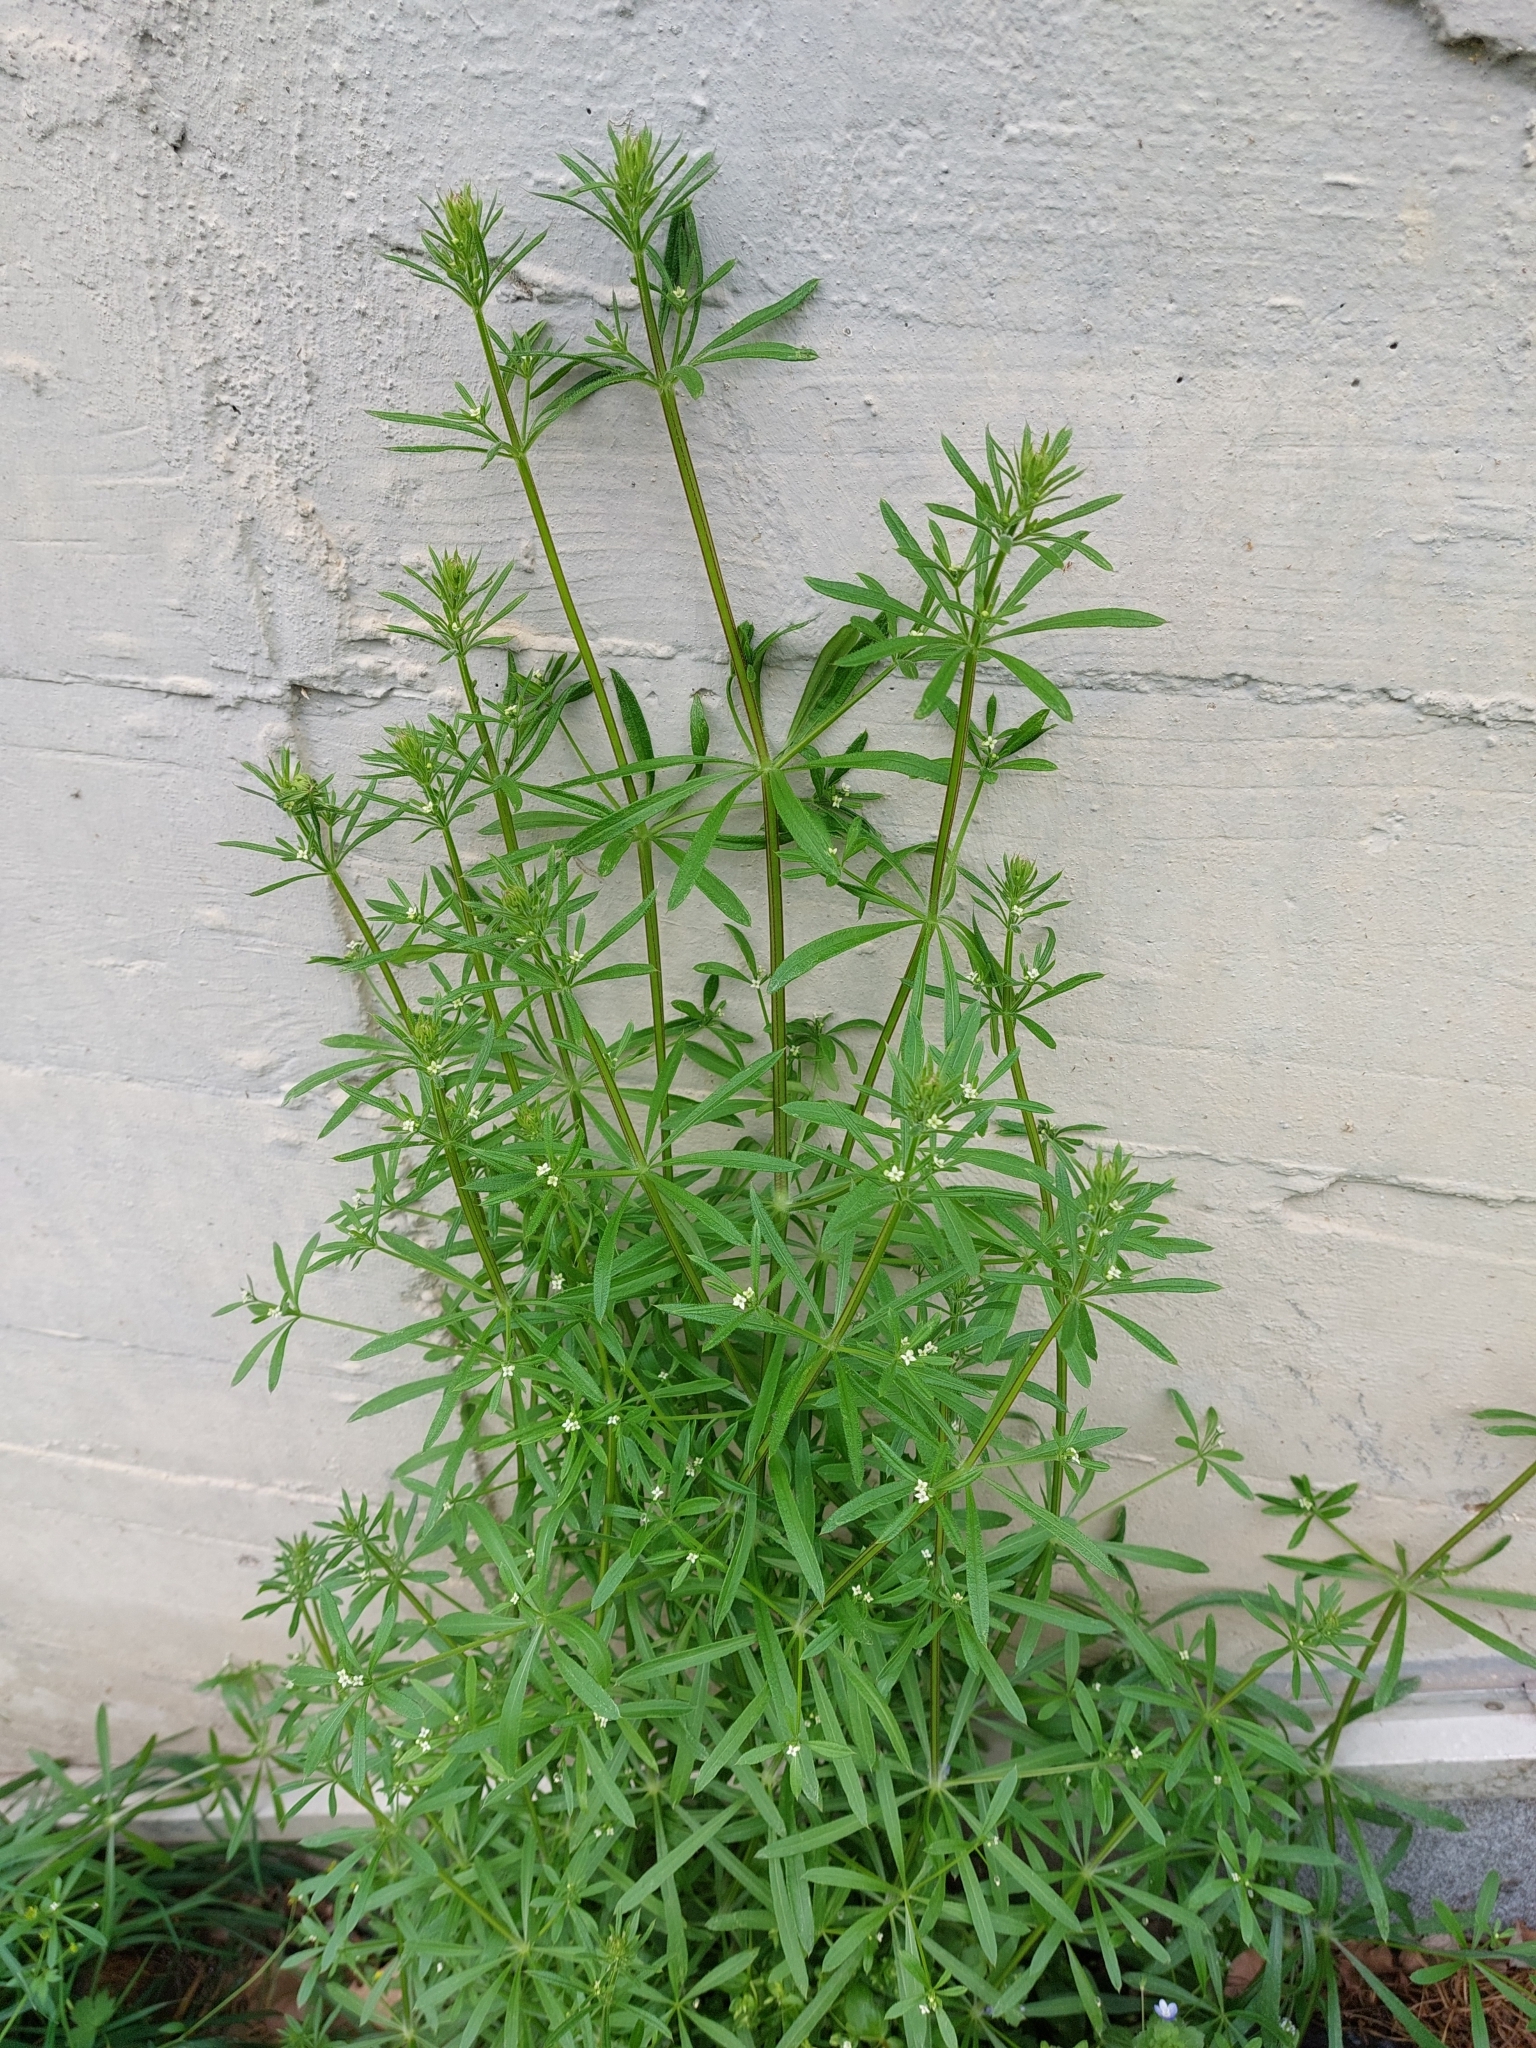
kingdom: Plantae
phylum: Tracheophyta
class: Magnoliopsida
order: Gentianales
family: Rubiaceae
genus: Galium
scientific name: Galium aparine
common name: Cleavers
